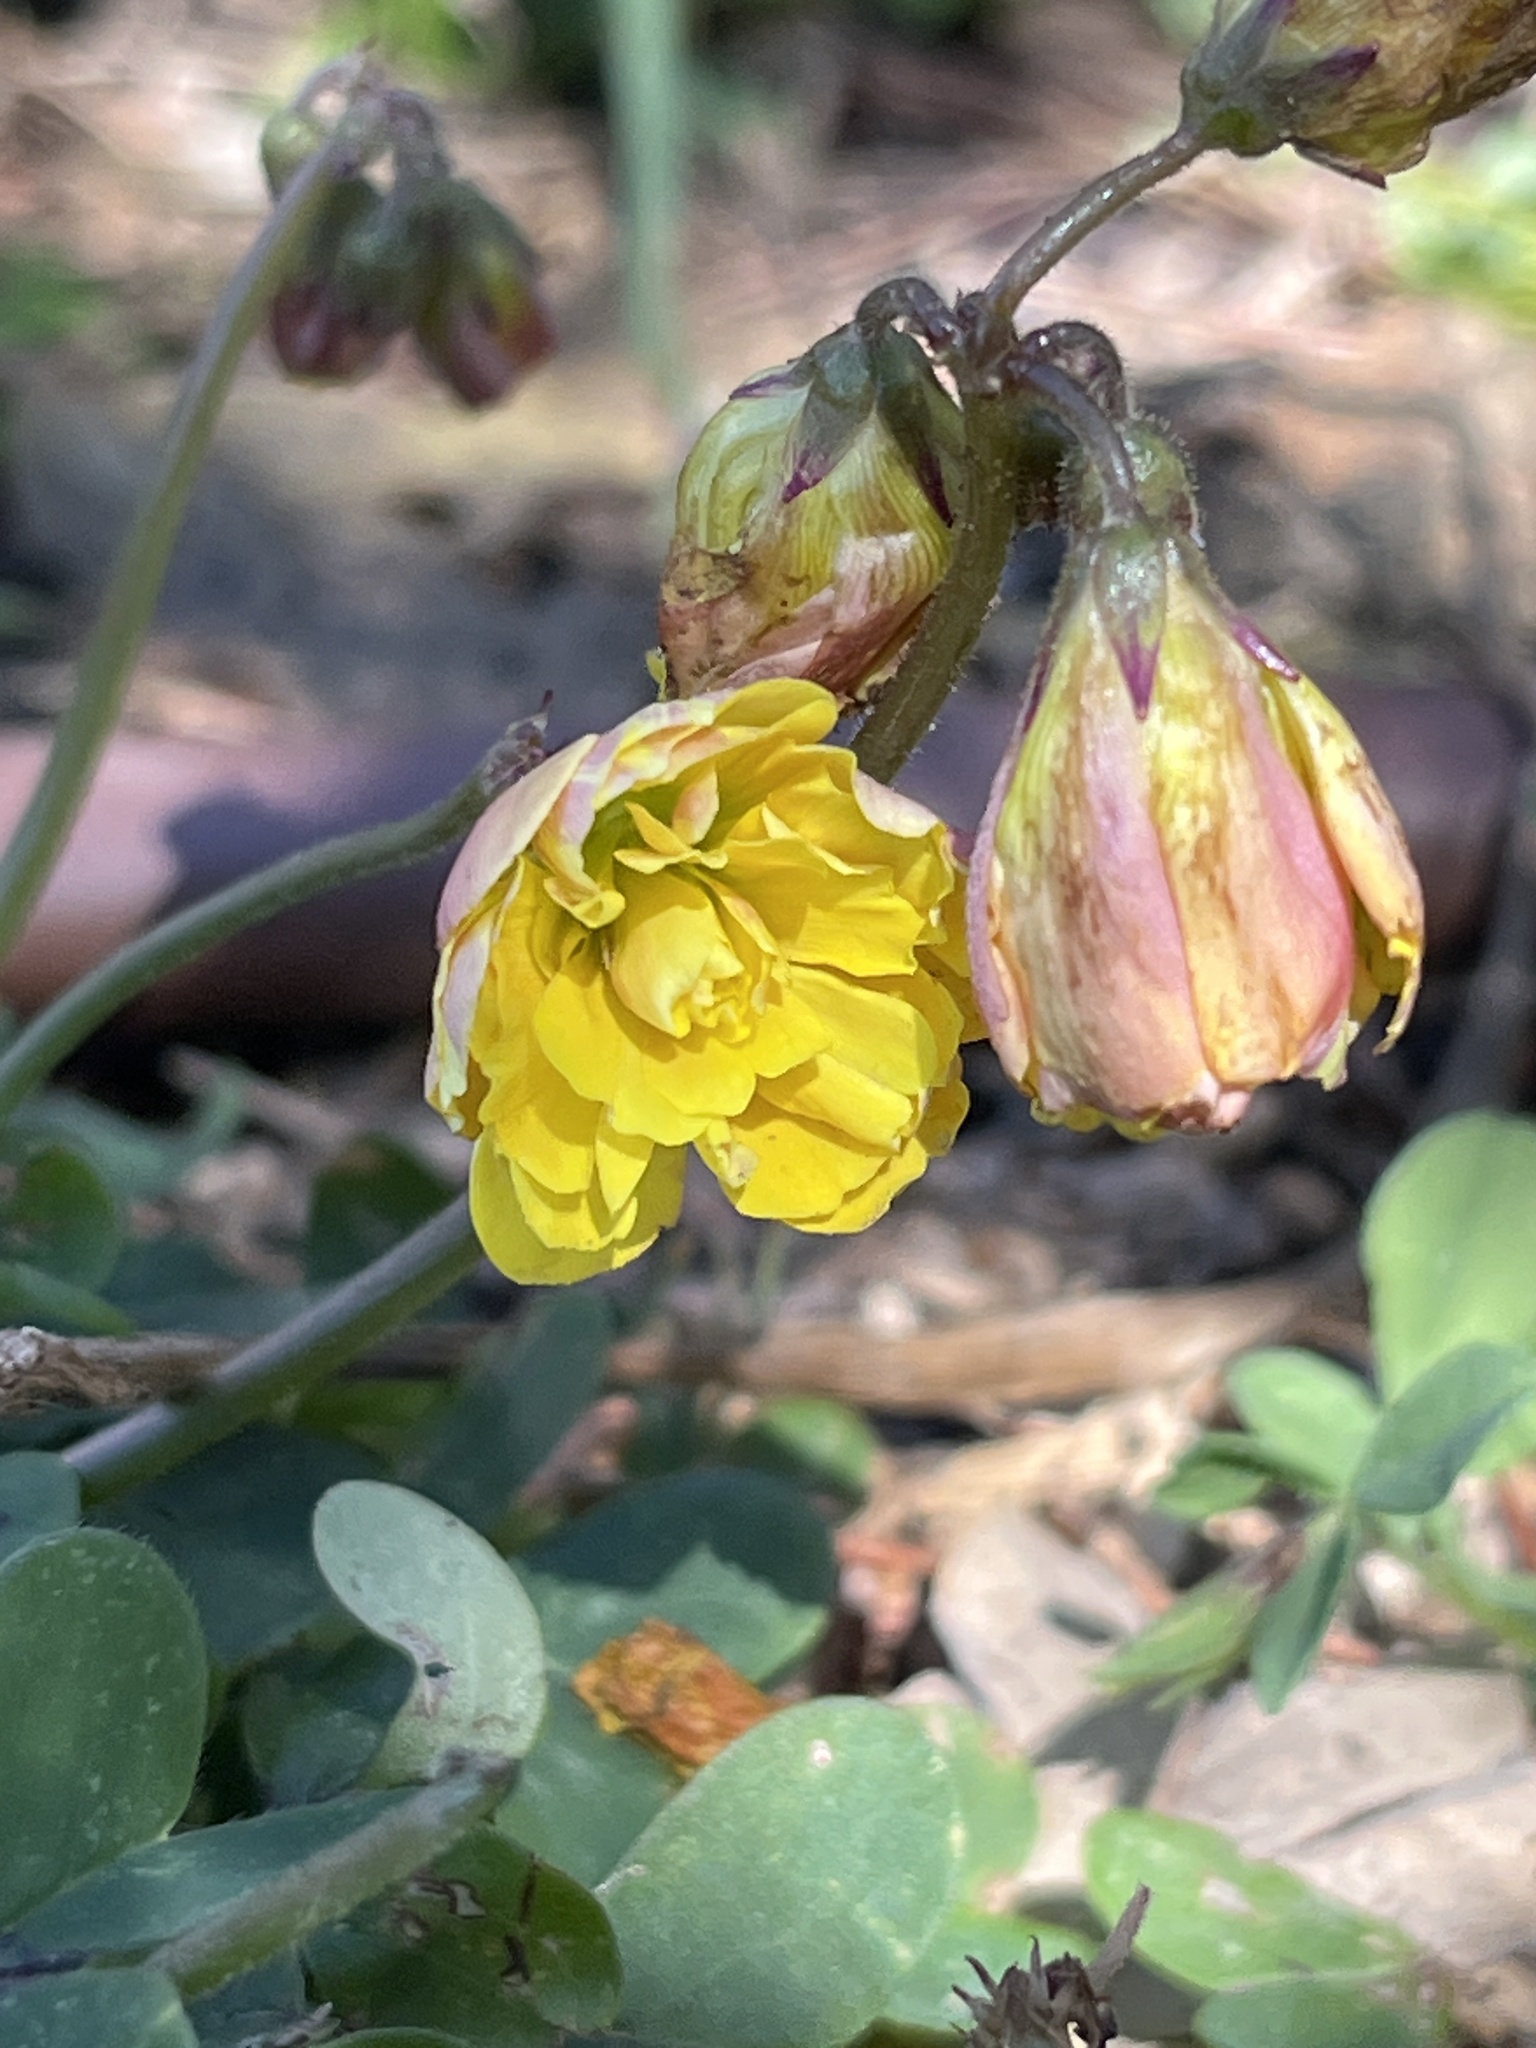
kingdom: Plantae
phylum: Tracheophyta
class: Magnoliopsida
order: Oxalidales
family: Oxalidaceae
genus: Oxalis
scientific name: Oxalis pes-caprae
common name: Bermuda-buttercup
